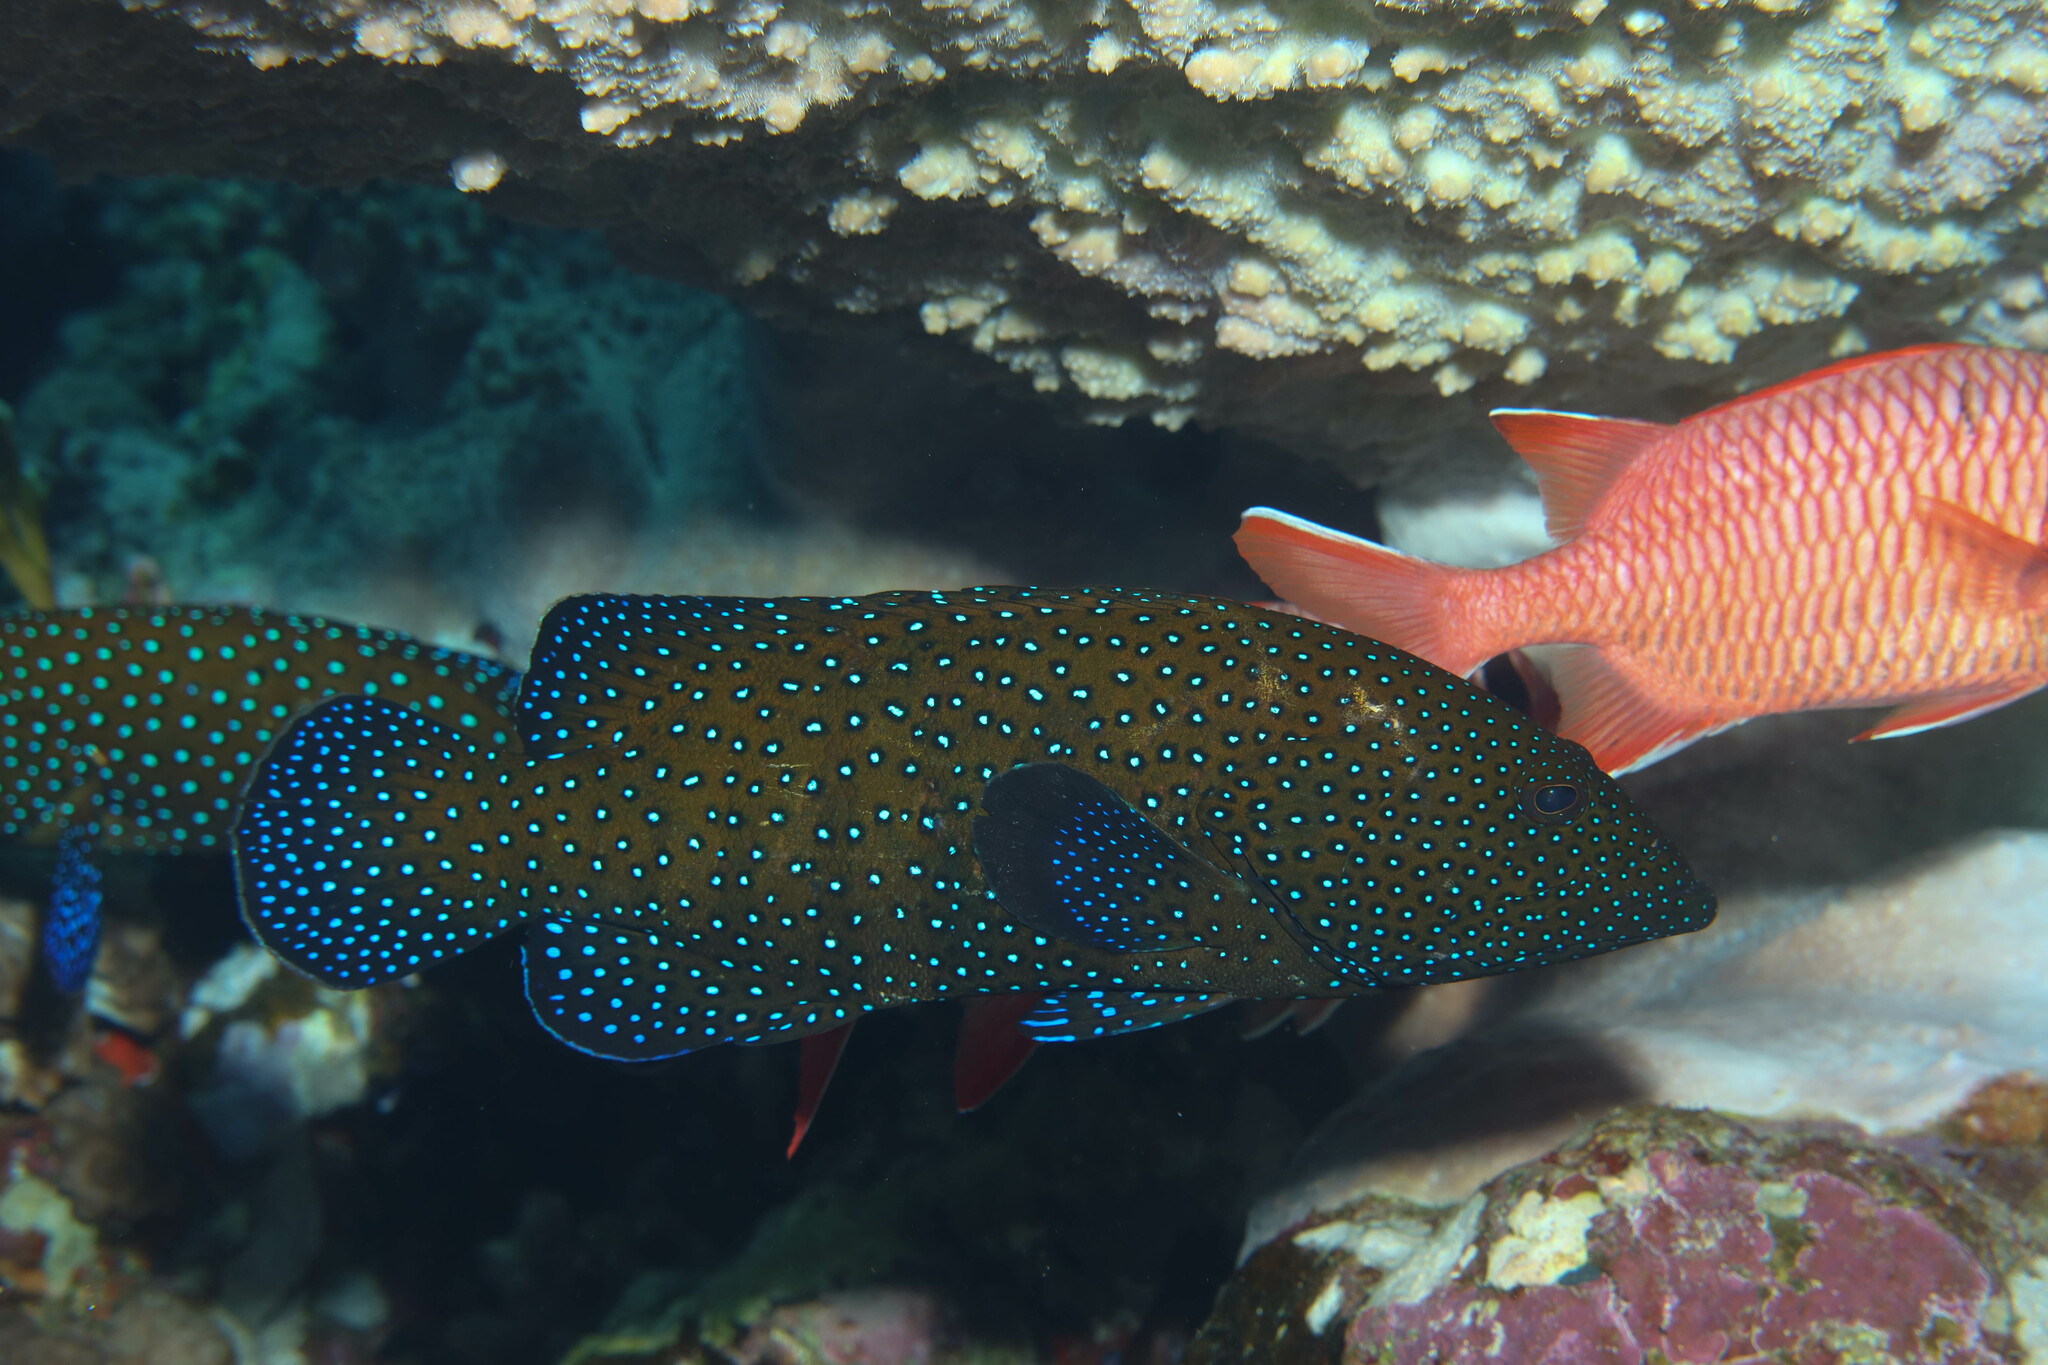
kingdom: Animalia
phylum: Chordata
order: Perciformes
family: Serranidae
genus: Cephalopholis
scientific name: Cephalopholis argus
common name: Peacock grouper
